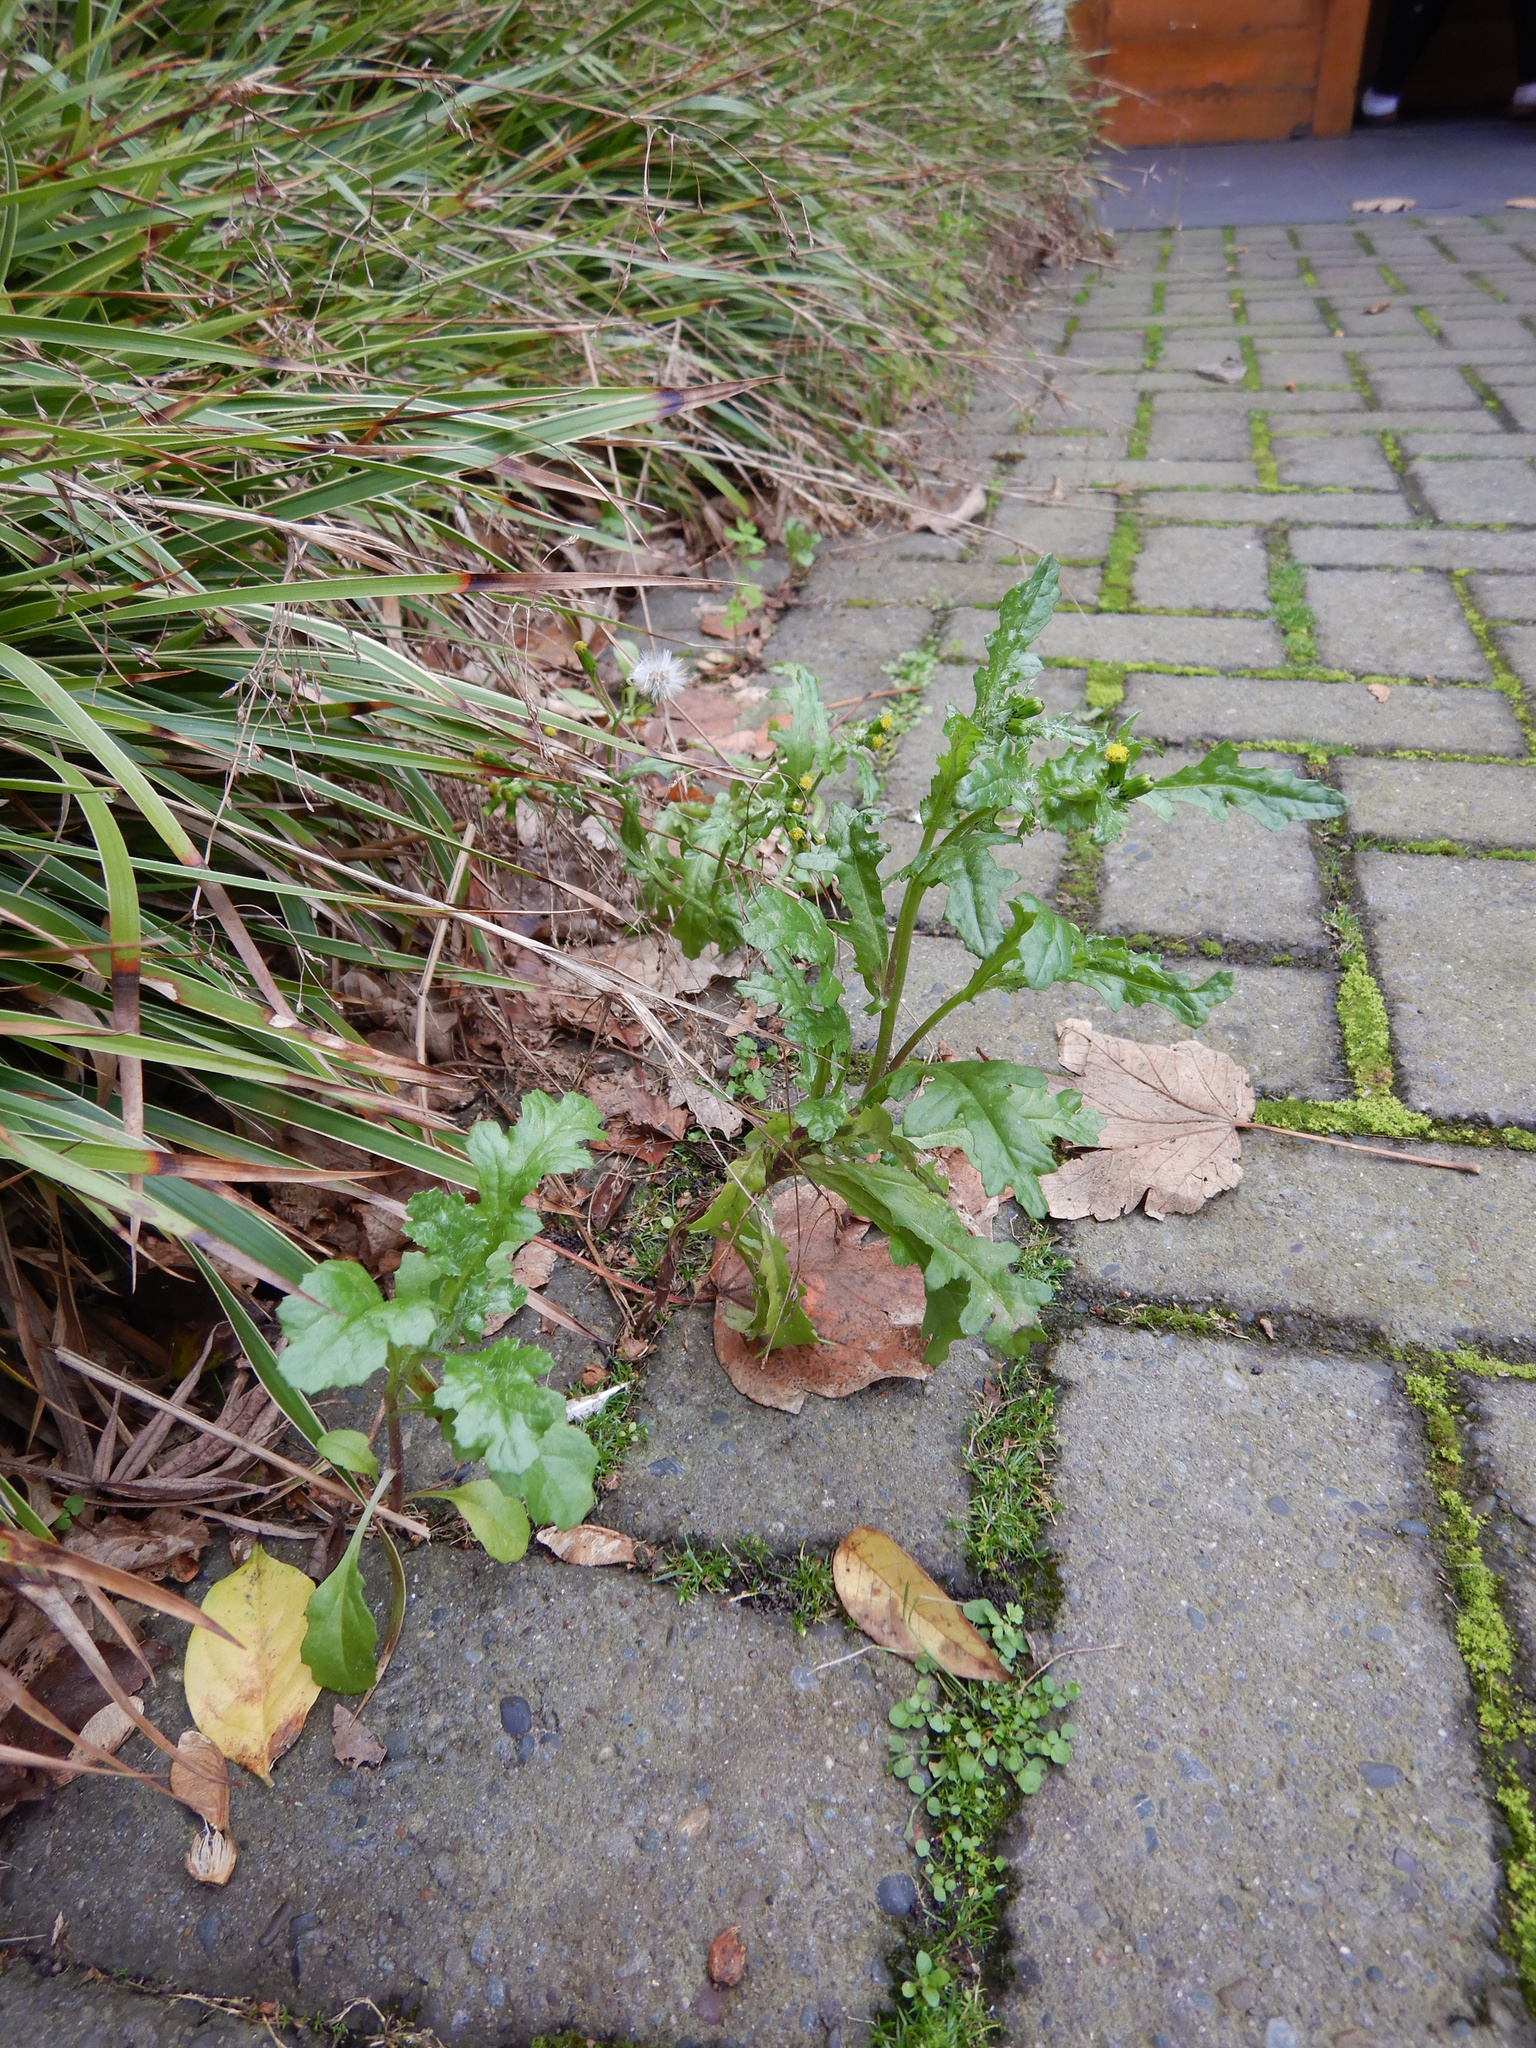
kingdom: Plantae
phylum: Tracheophyta
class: Magnoliopsida
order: Asterales
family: Asteraceae
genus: Senecio
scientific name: Senecio vulgaris
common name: Old-man-in-the-spring
